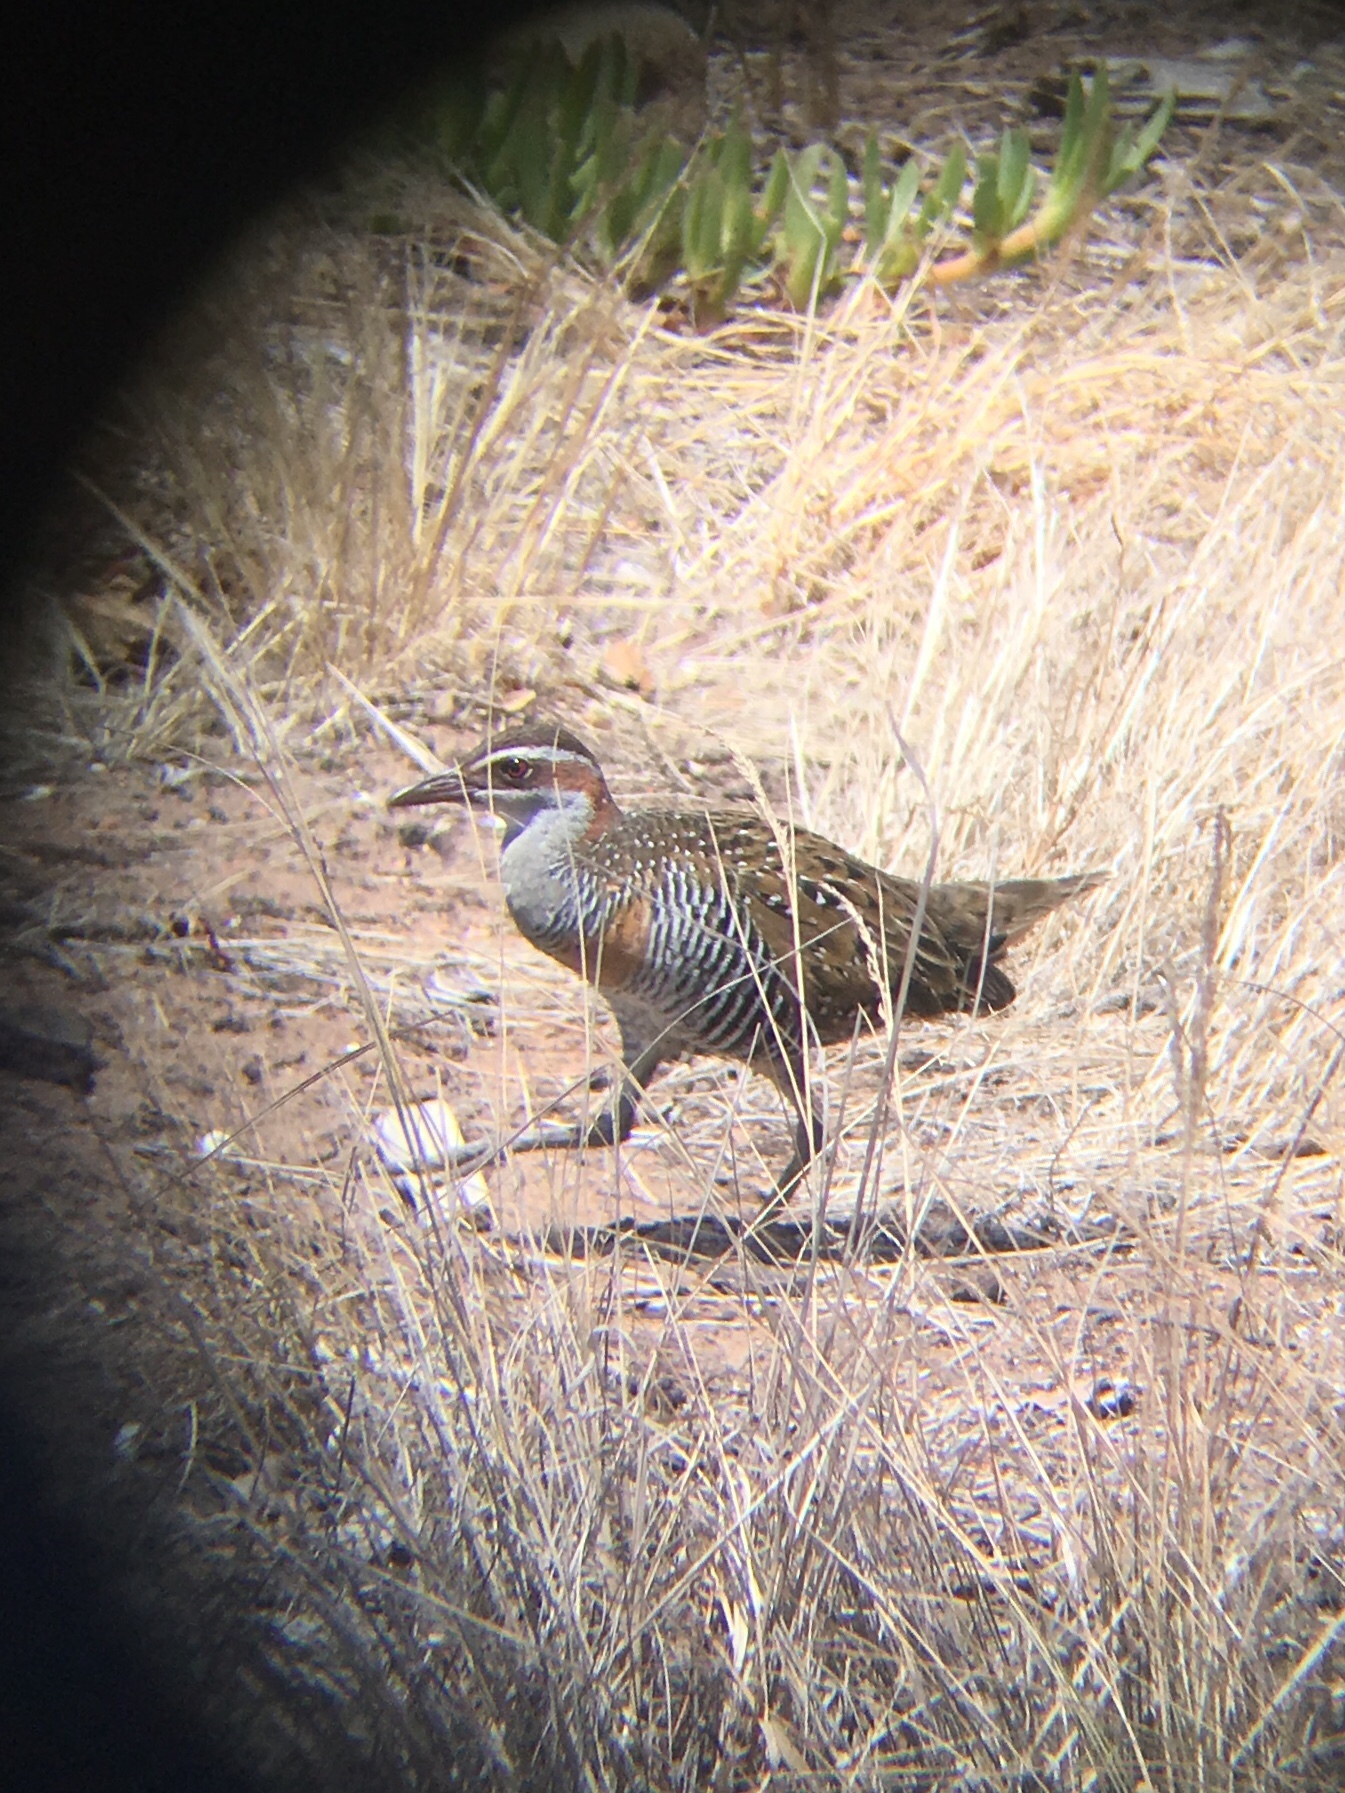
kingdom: Animalia
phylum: Chordata
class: Aves
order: Gruiformes
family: Rallidae
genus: Gallirallus
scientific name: Gallirallus philippensis
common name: Buff-banded rail
